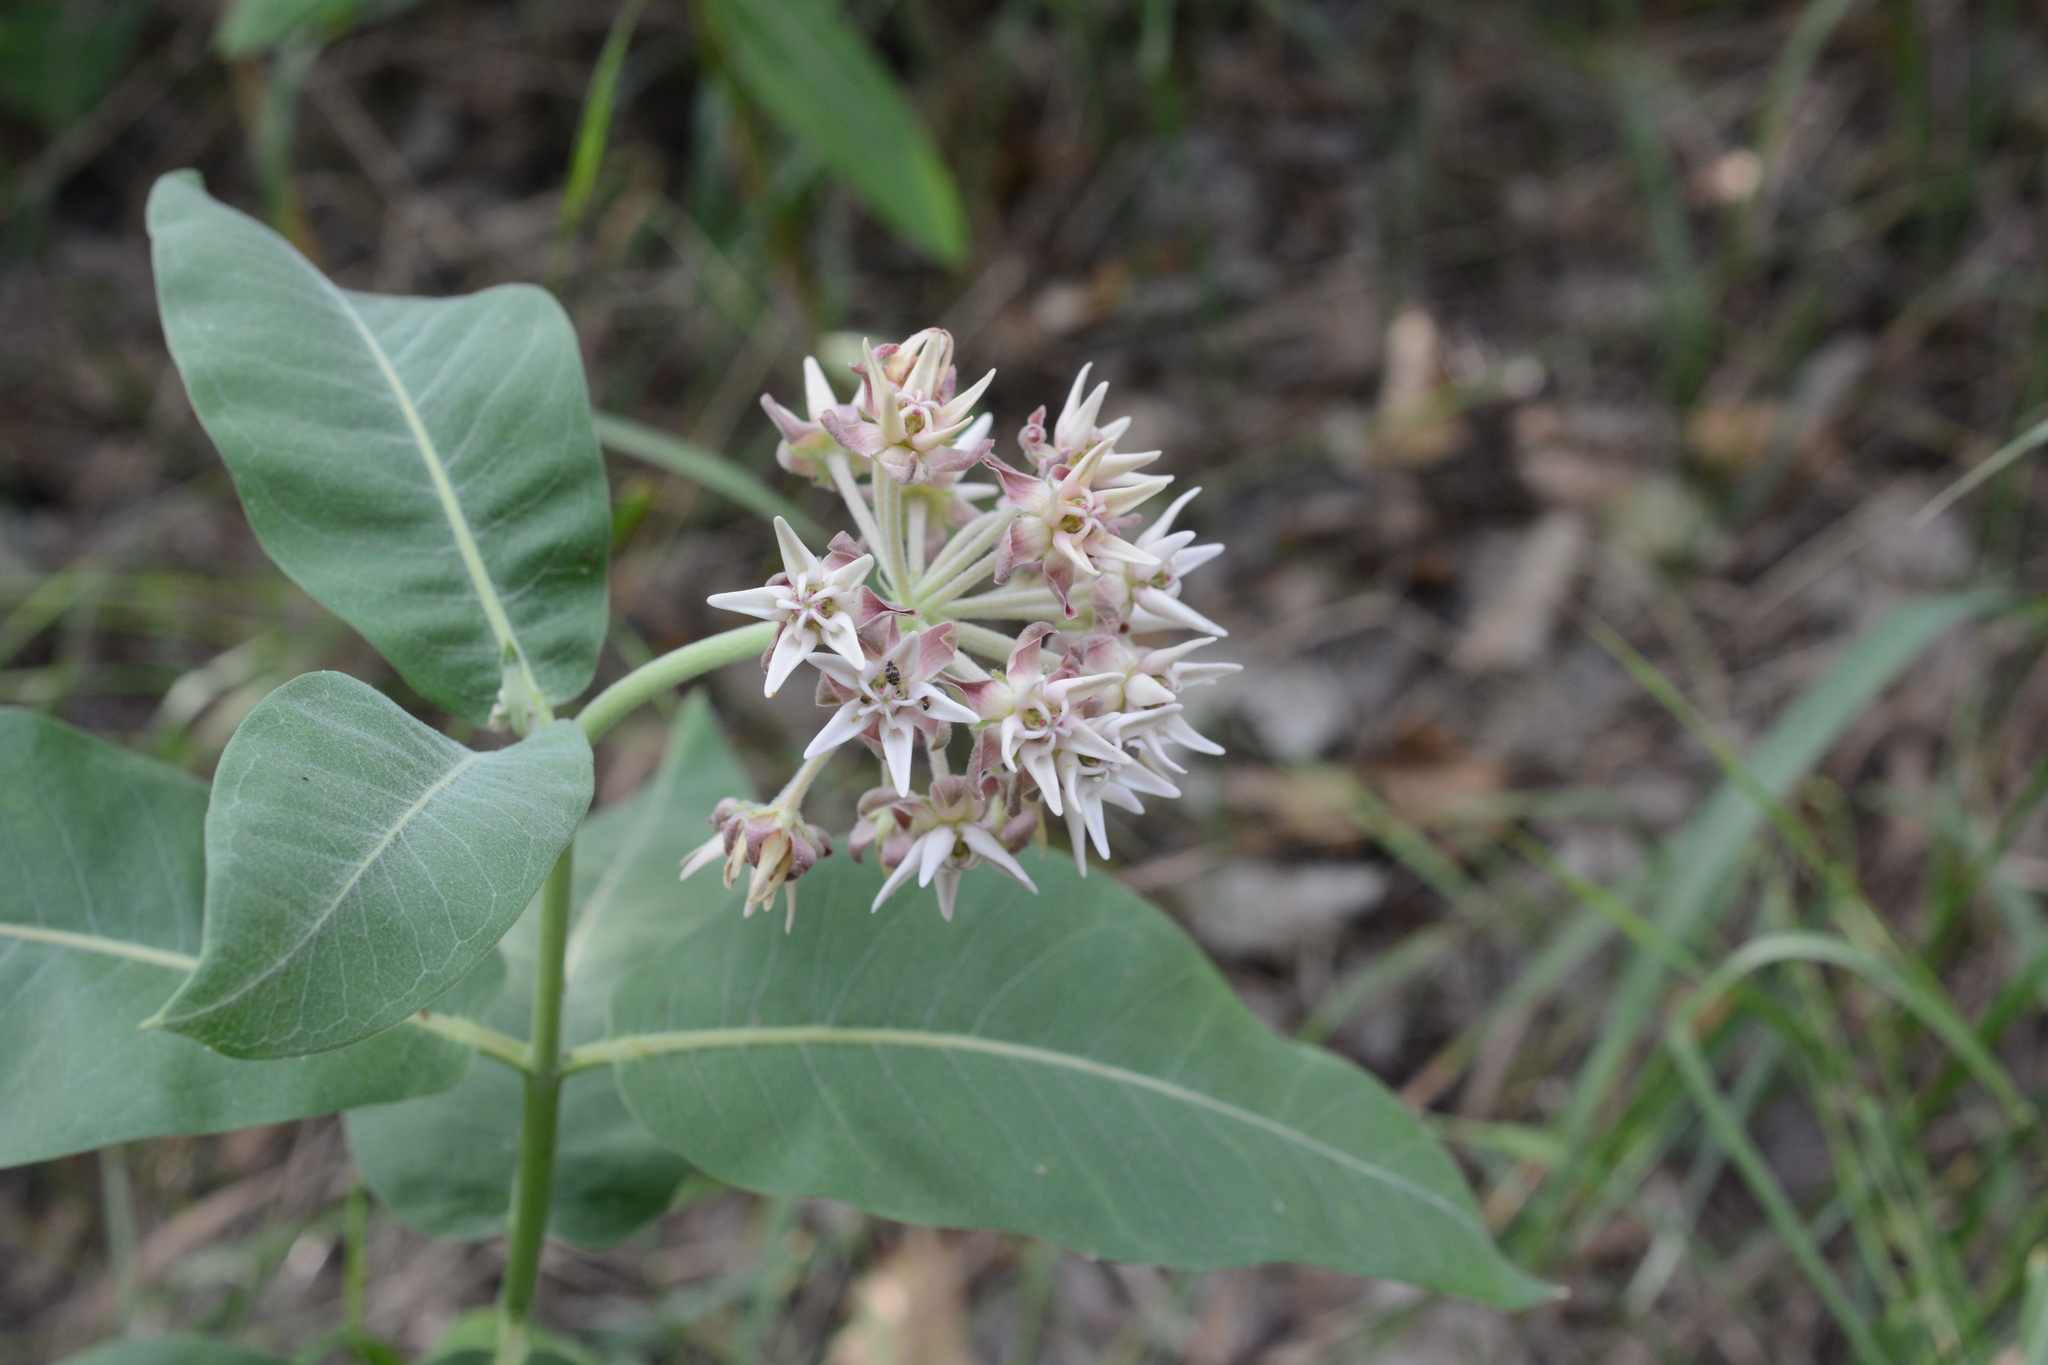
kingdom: Plantae
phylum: Tracheophyta
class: Magnoliopsida
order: Gentianales
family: Apocynaceae
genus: Asclepias
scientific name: Asclepias speciosa
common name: Showy milkweed
